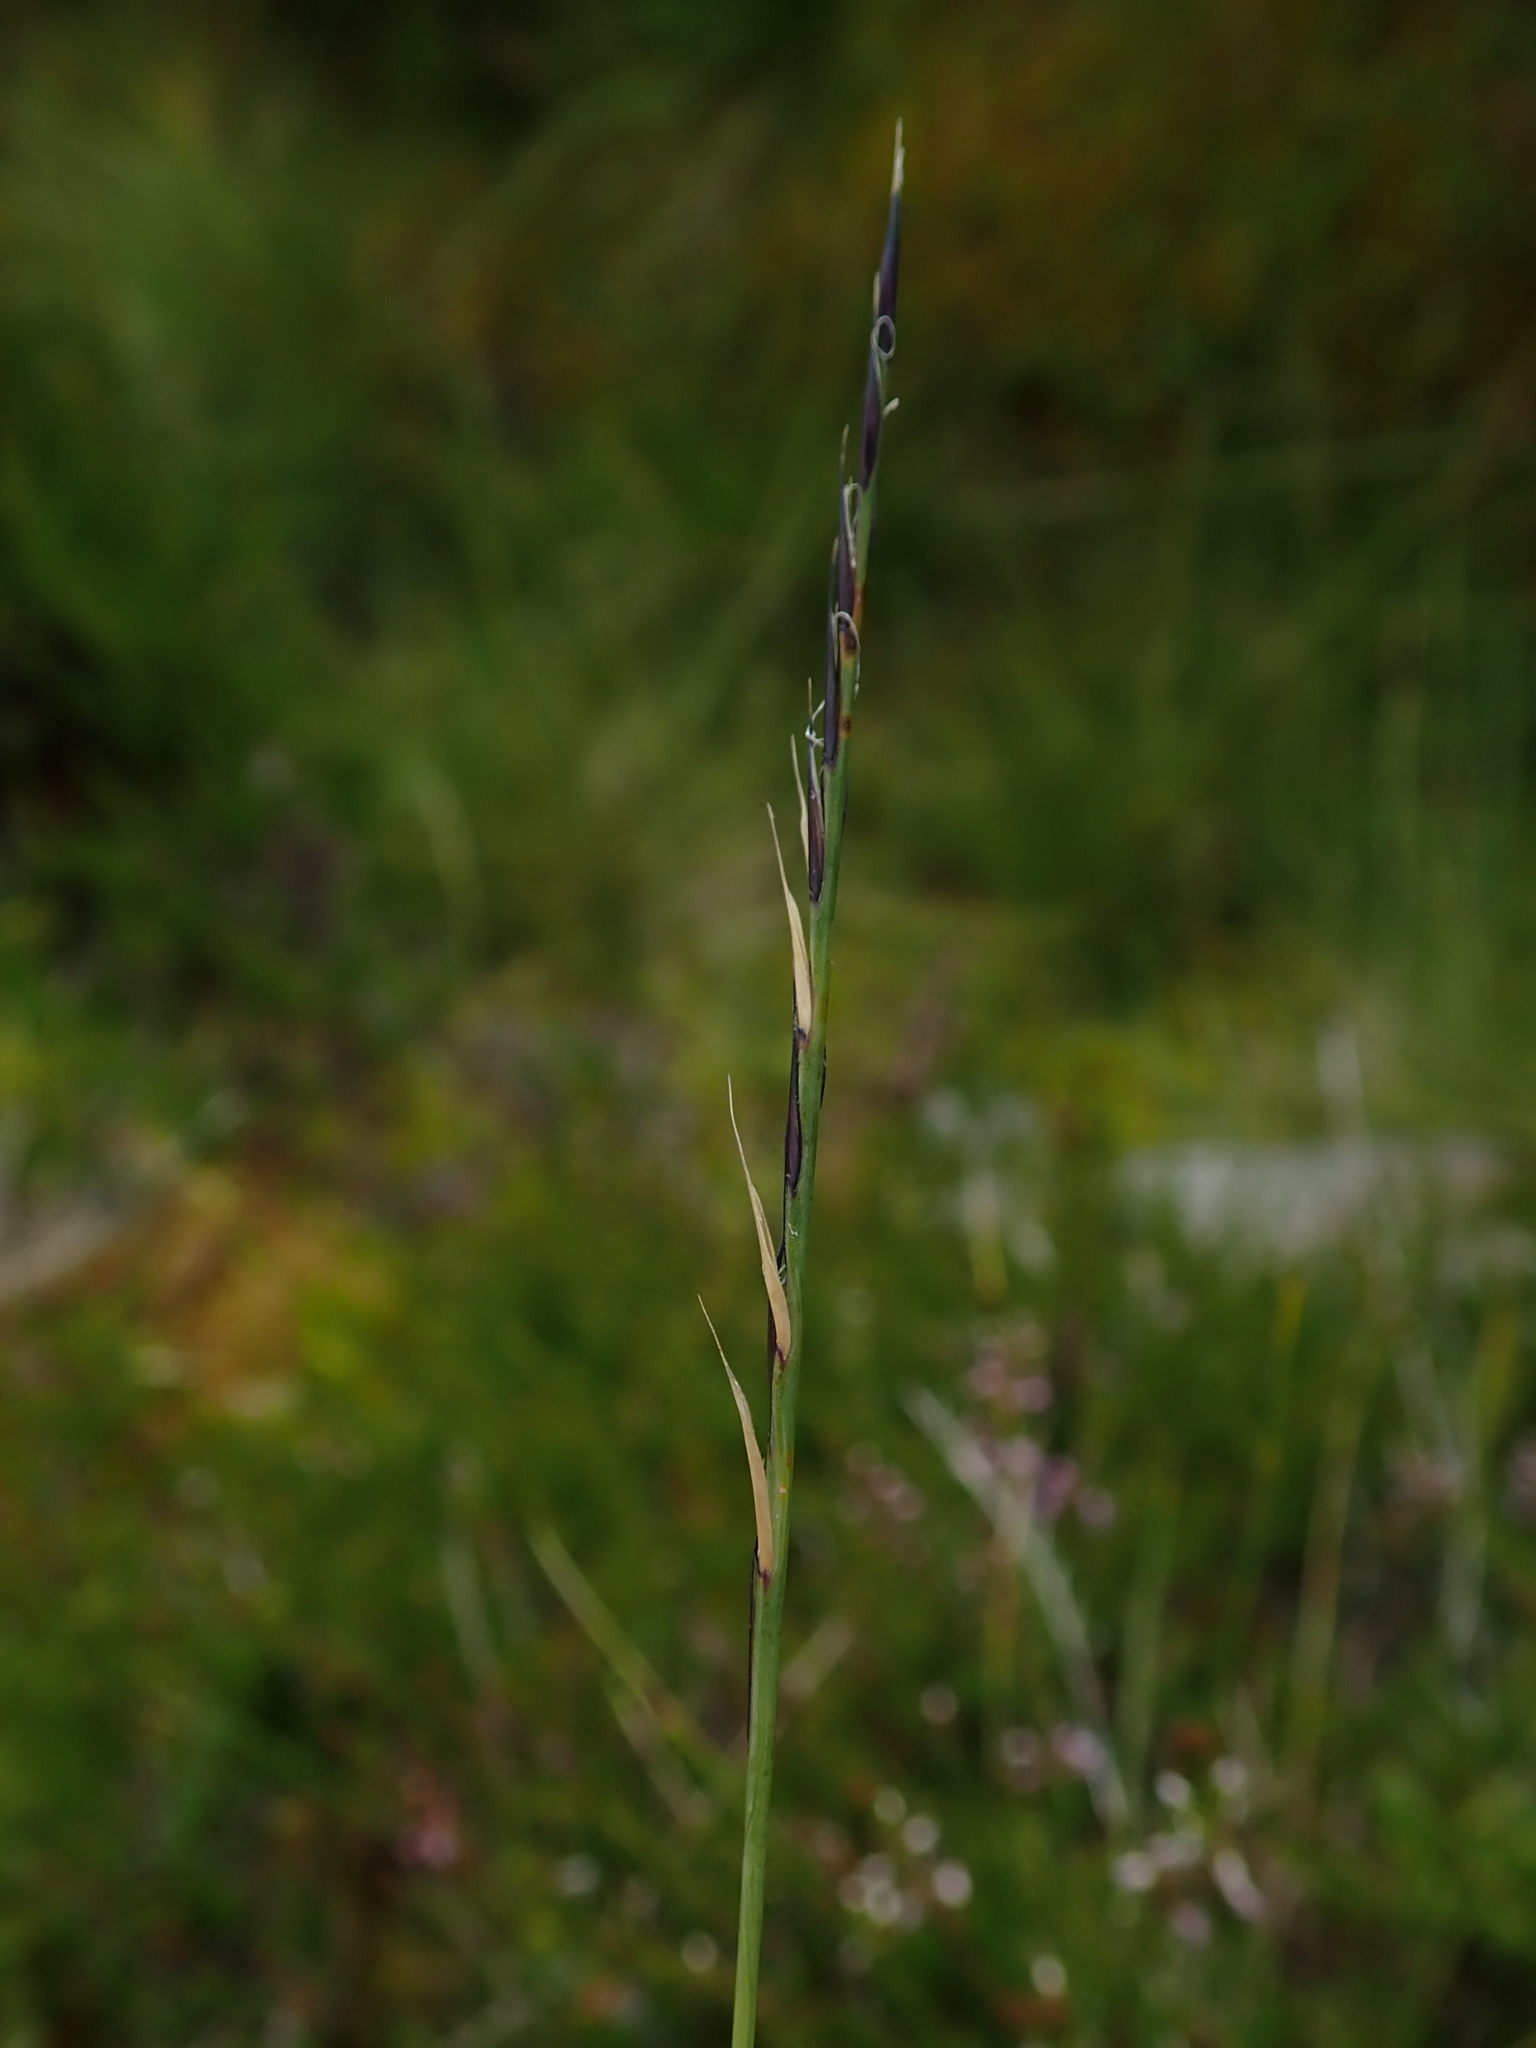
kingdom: Plantae
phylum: Tracheophyta
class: Liliopsida
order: Poales
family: Poaceae
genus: Nardus
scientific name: Nardus stricta
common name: Mat-grass
